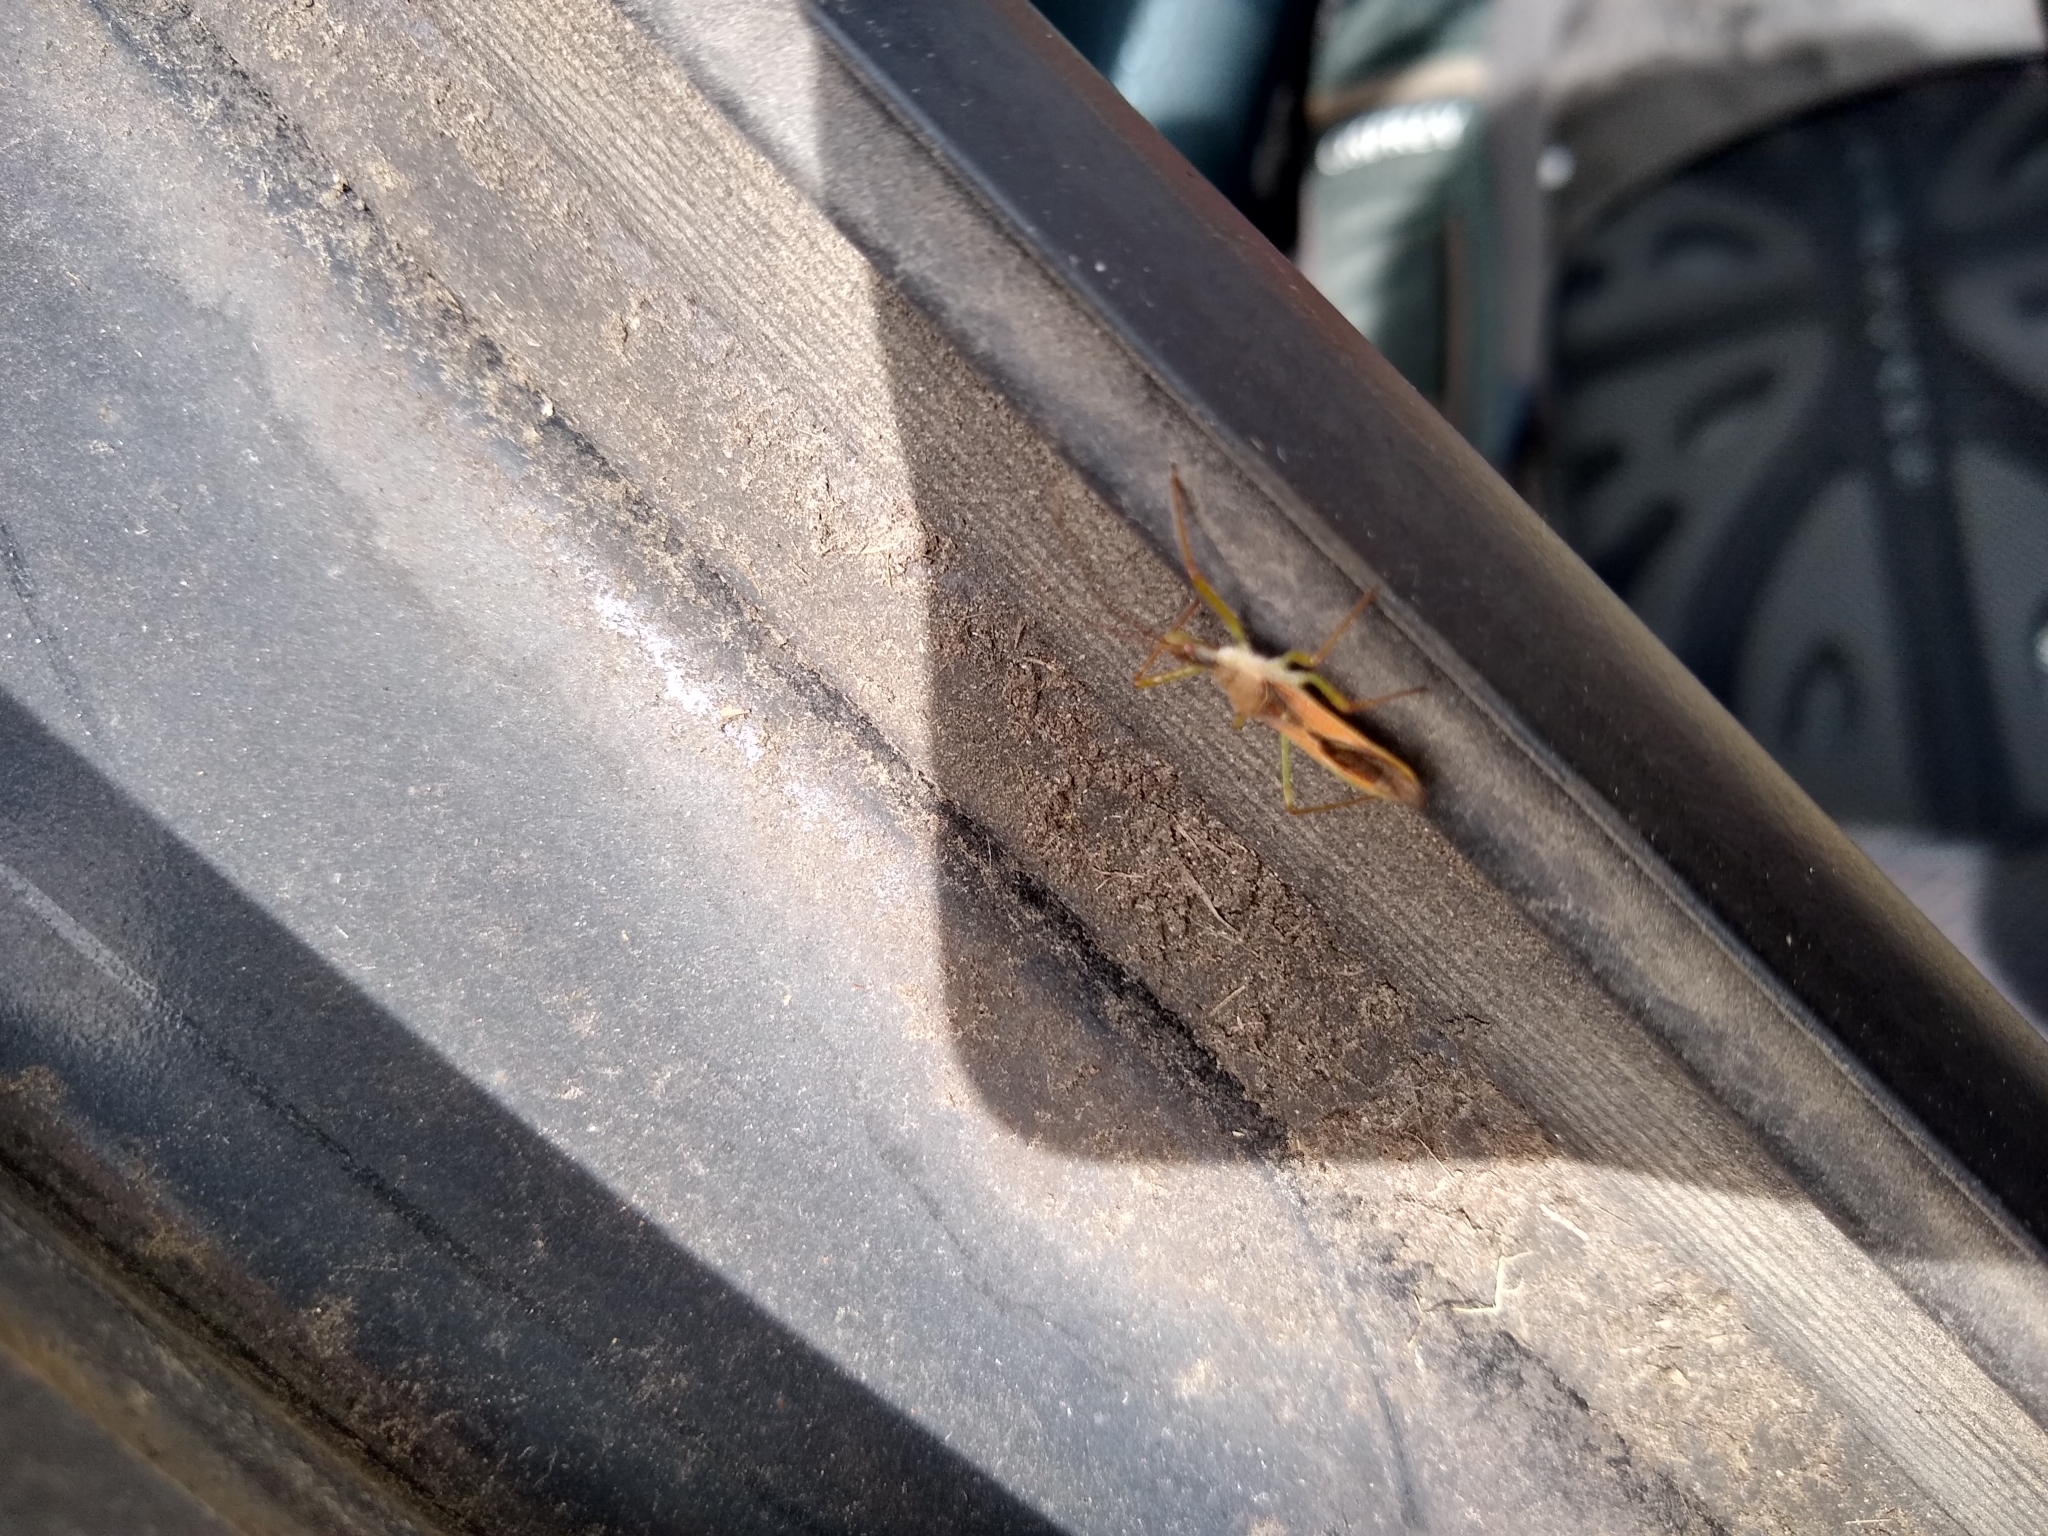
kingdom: Animalia
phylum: Arthropoda
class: Insecta
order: Hemiptera
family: Reduviidae
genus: Zelus
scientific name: Zelus renardii
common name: Assassin bug
